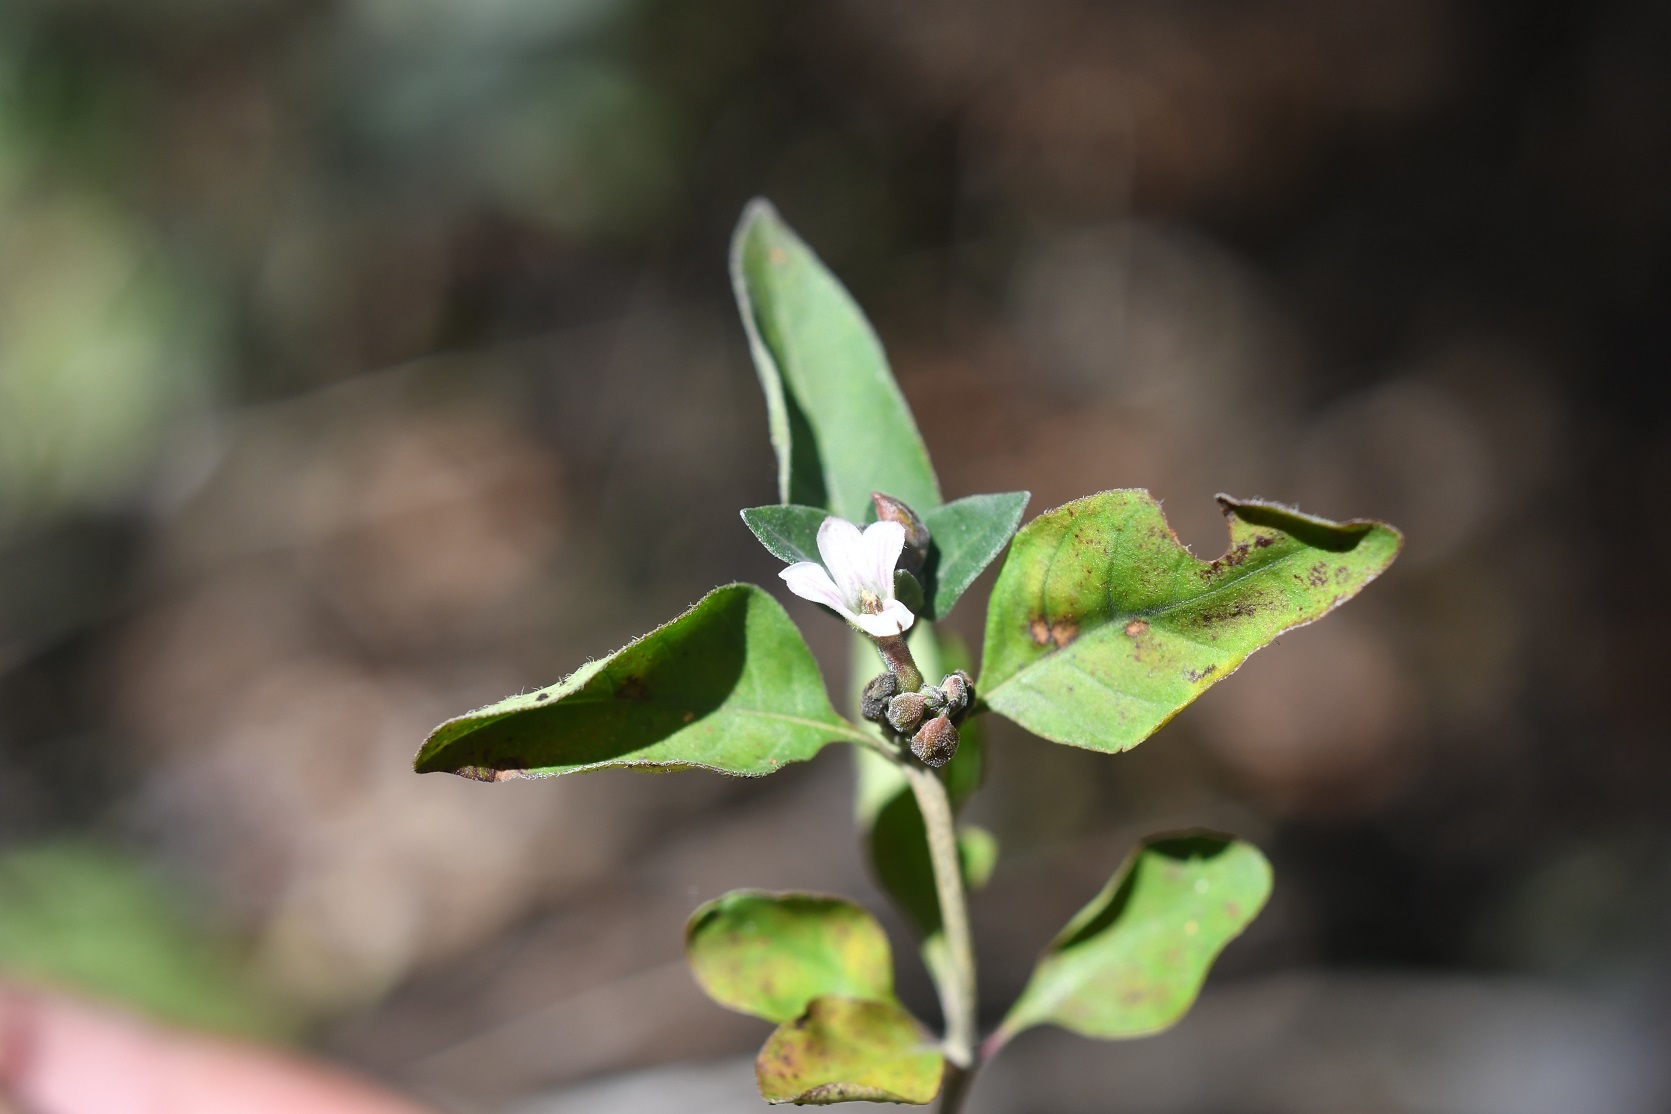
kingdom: Plantae
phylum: Tracheophyta
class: Magnoliopsida
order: Lamiales
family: Acanthaceae
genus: Holographis
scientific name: Holographis parayana
